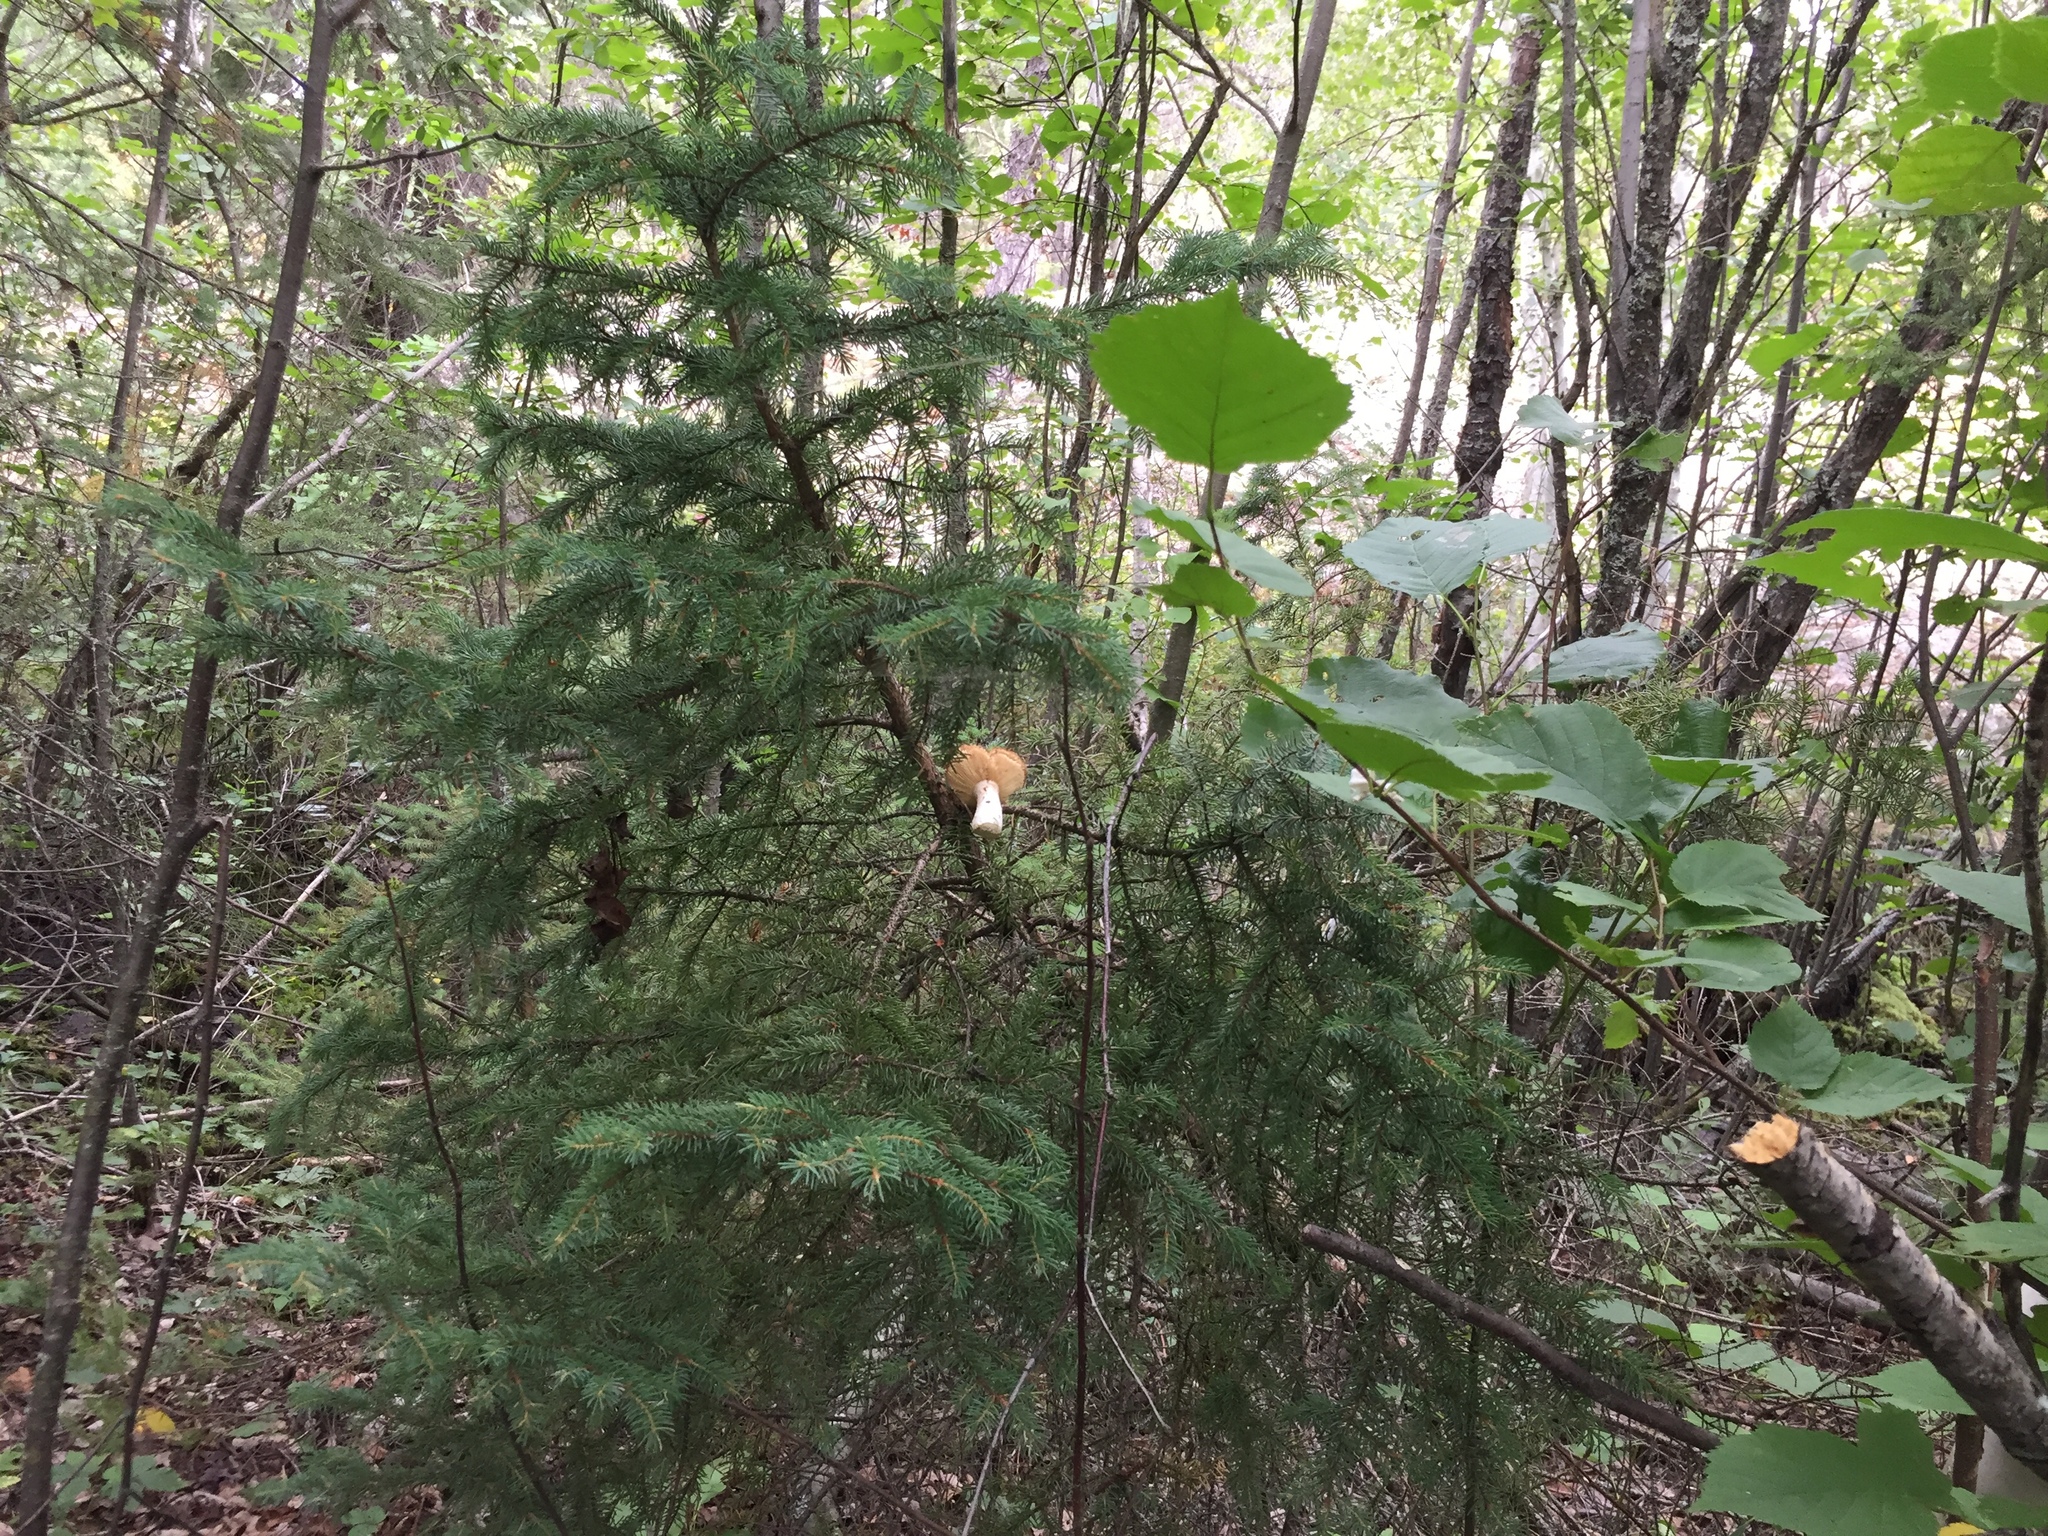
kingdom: Animalia
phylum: Chordata
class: Mammalia
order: Rodentia
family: Sciuridae
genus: Tamiasciurus
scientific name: Tamiasciurus hudsonicus
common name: Red squirrel
